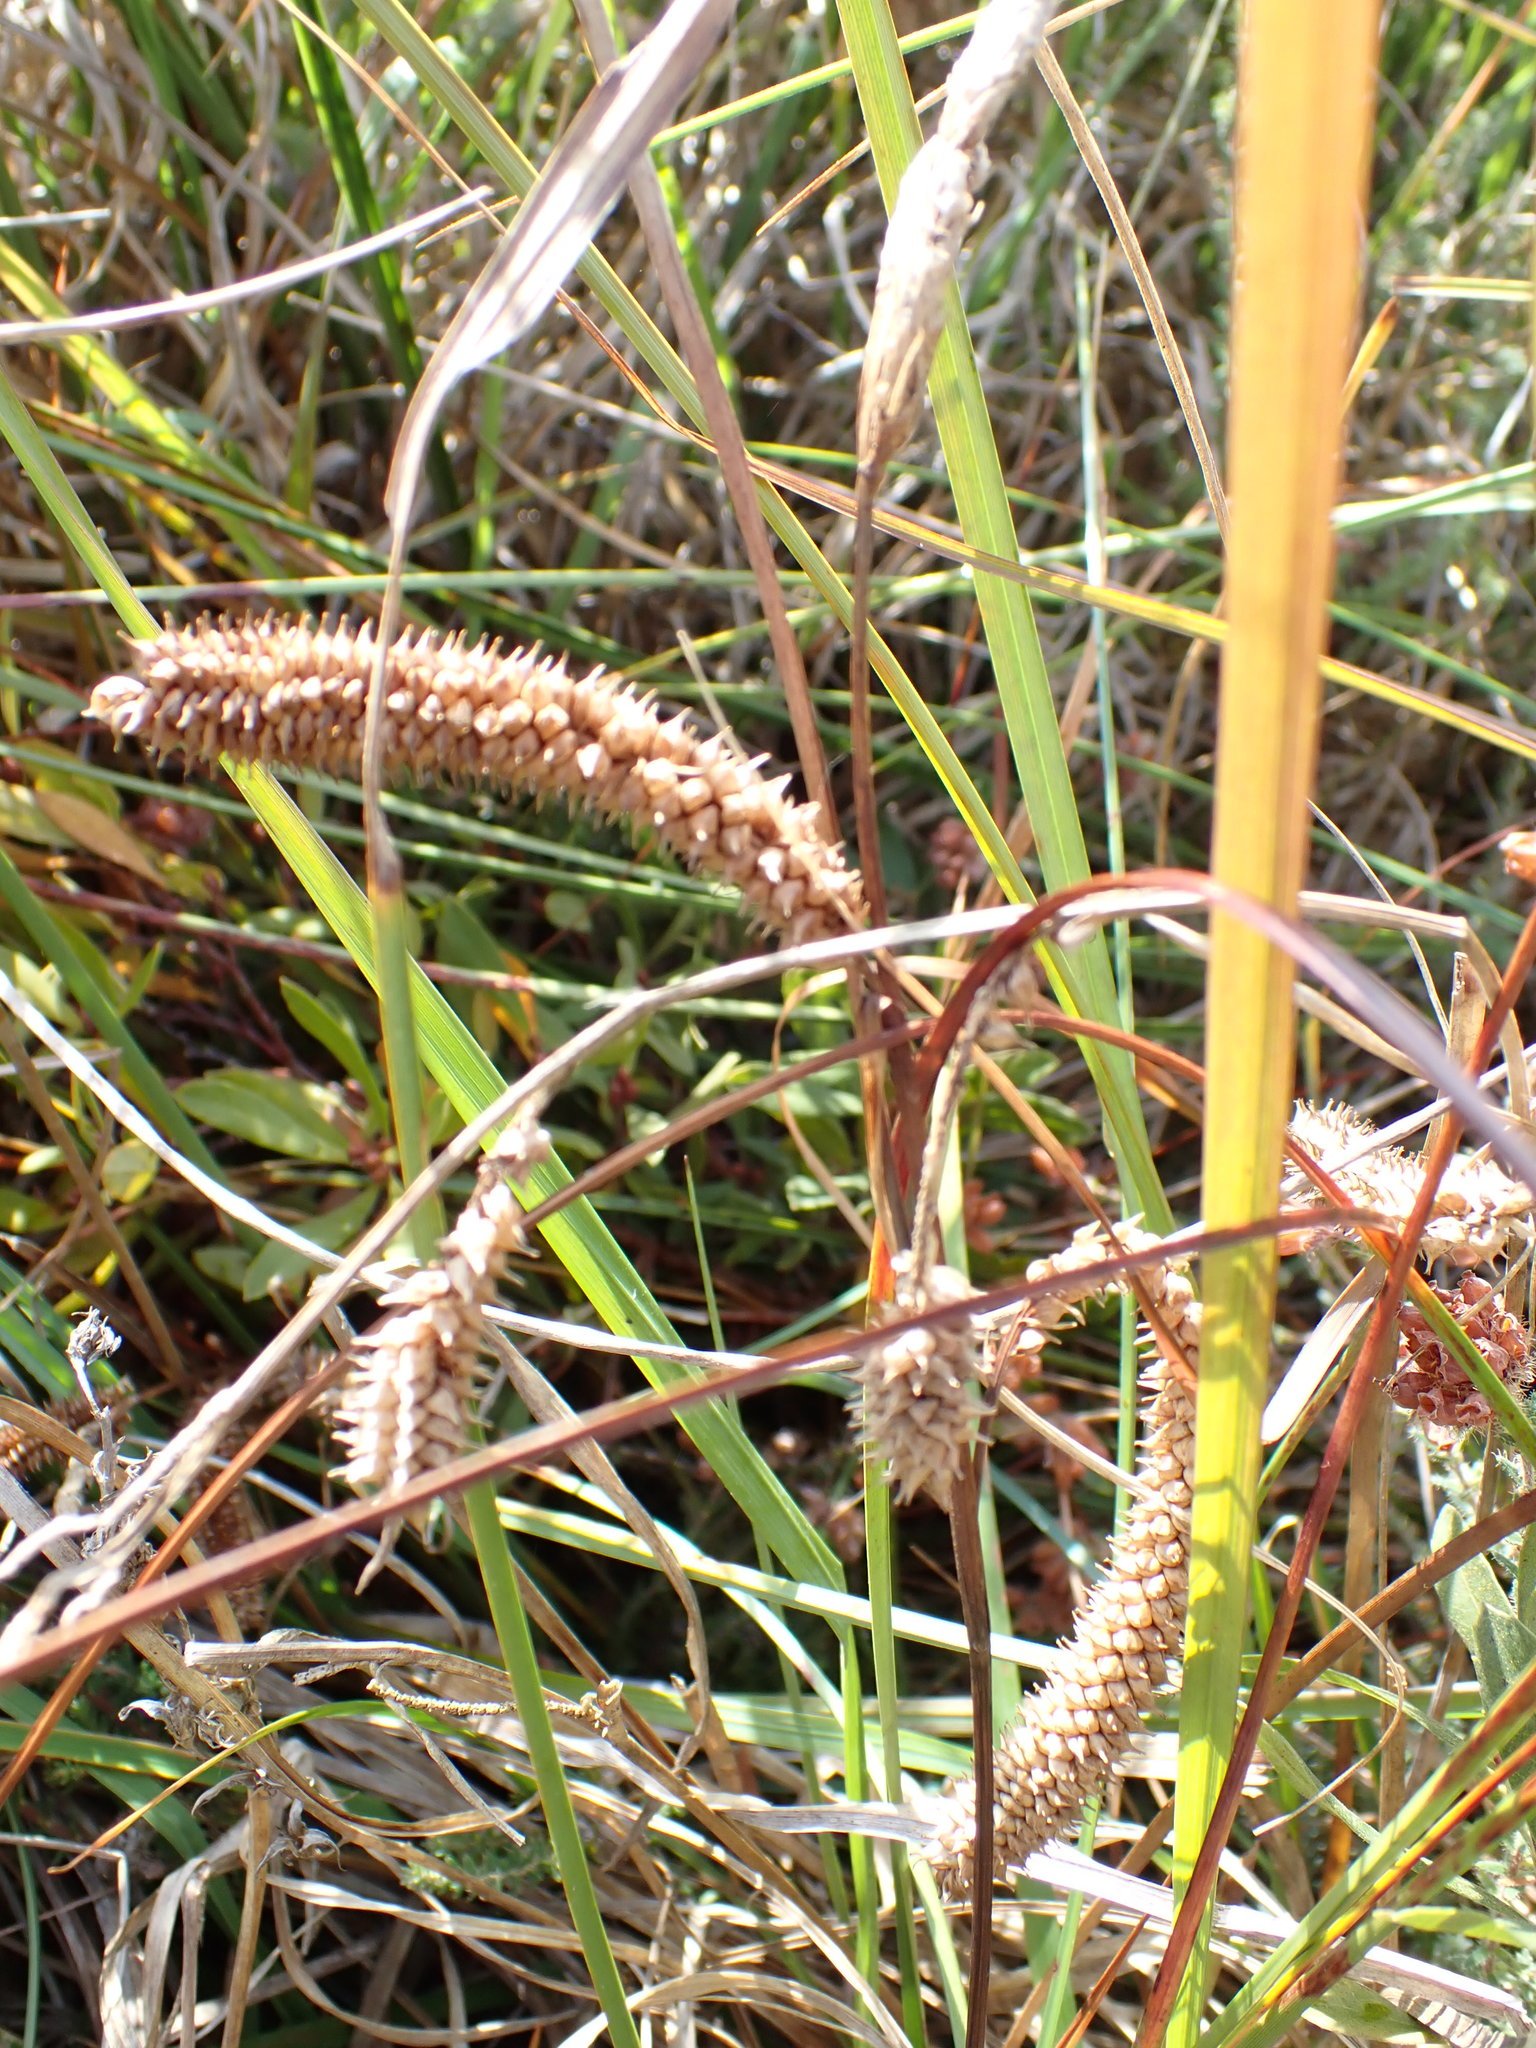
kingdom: Plantae
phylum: Tracheophyta
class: Liliopsida
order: Poales
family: Cyperaceae
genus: Carex
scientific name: Carex rostrata
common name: Bottle sedge
